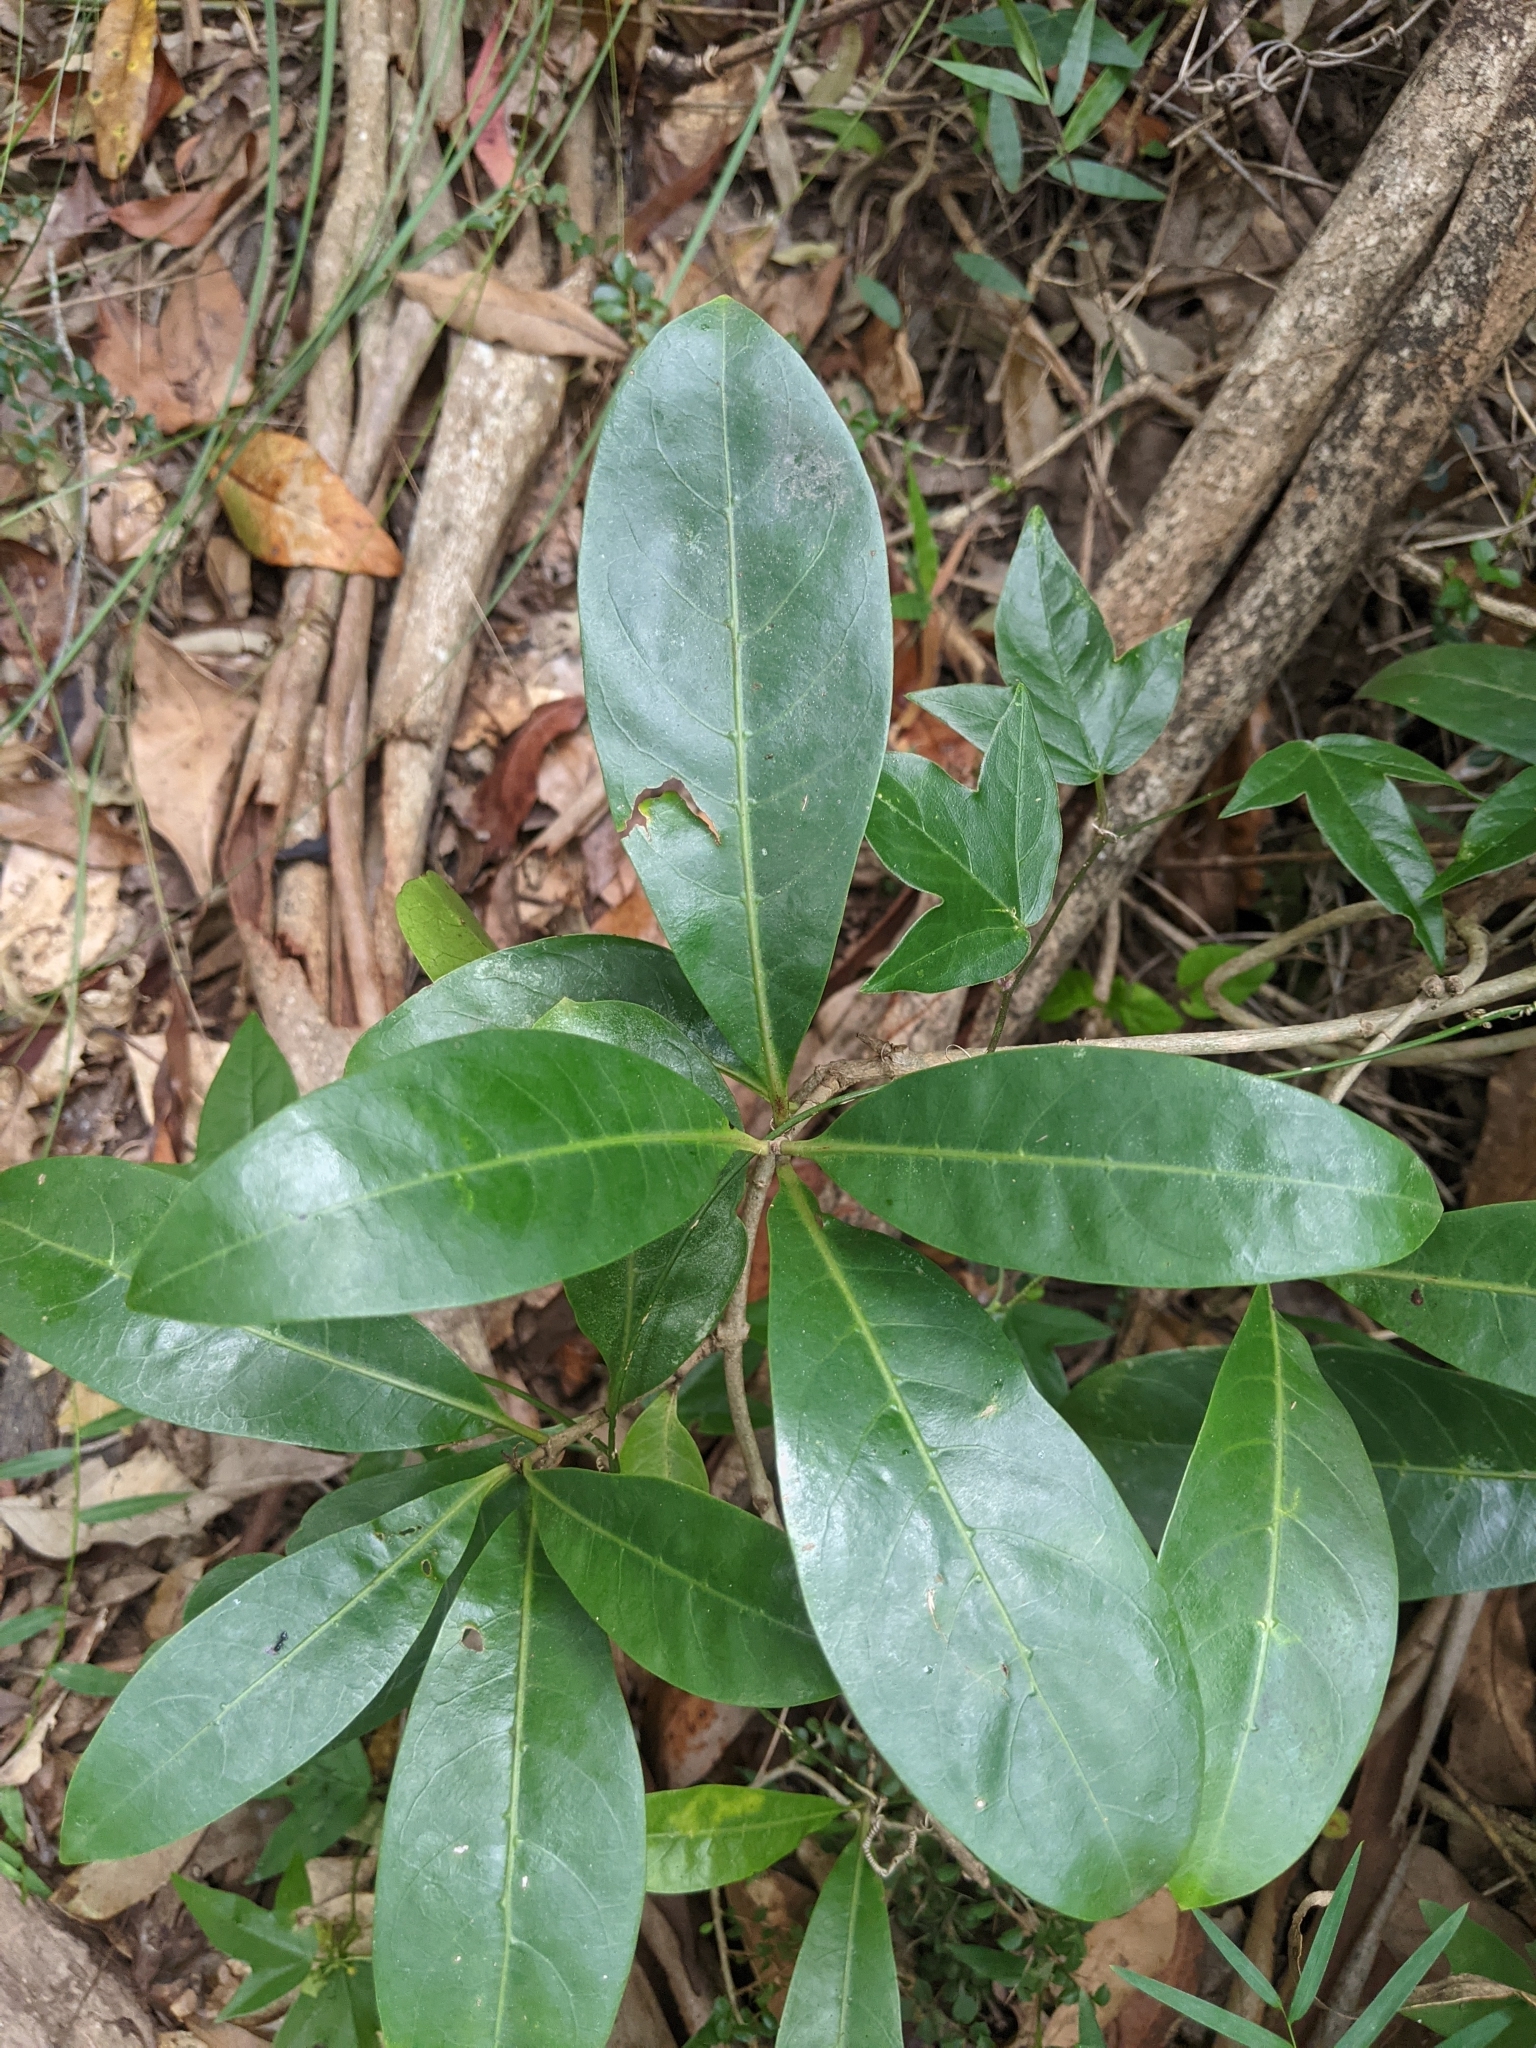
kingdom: Plantae
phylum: Tracheophyta
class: Magnoliopsida
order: Gentianales
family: Rubiaceae
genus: Coelospermum
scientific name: Coelospermum paniculatum
